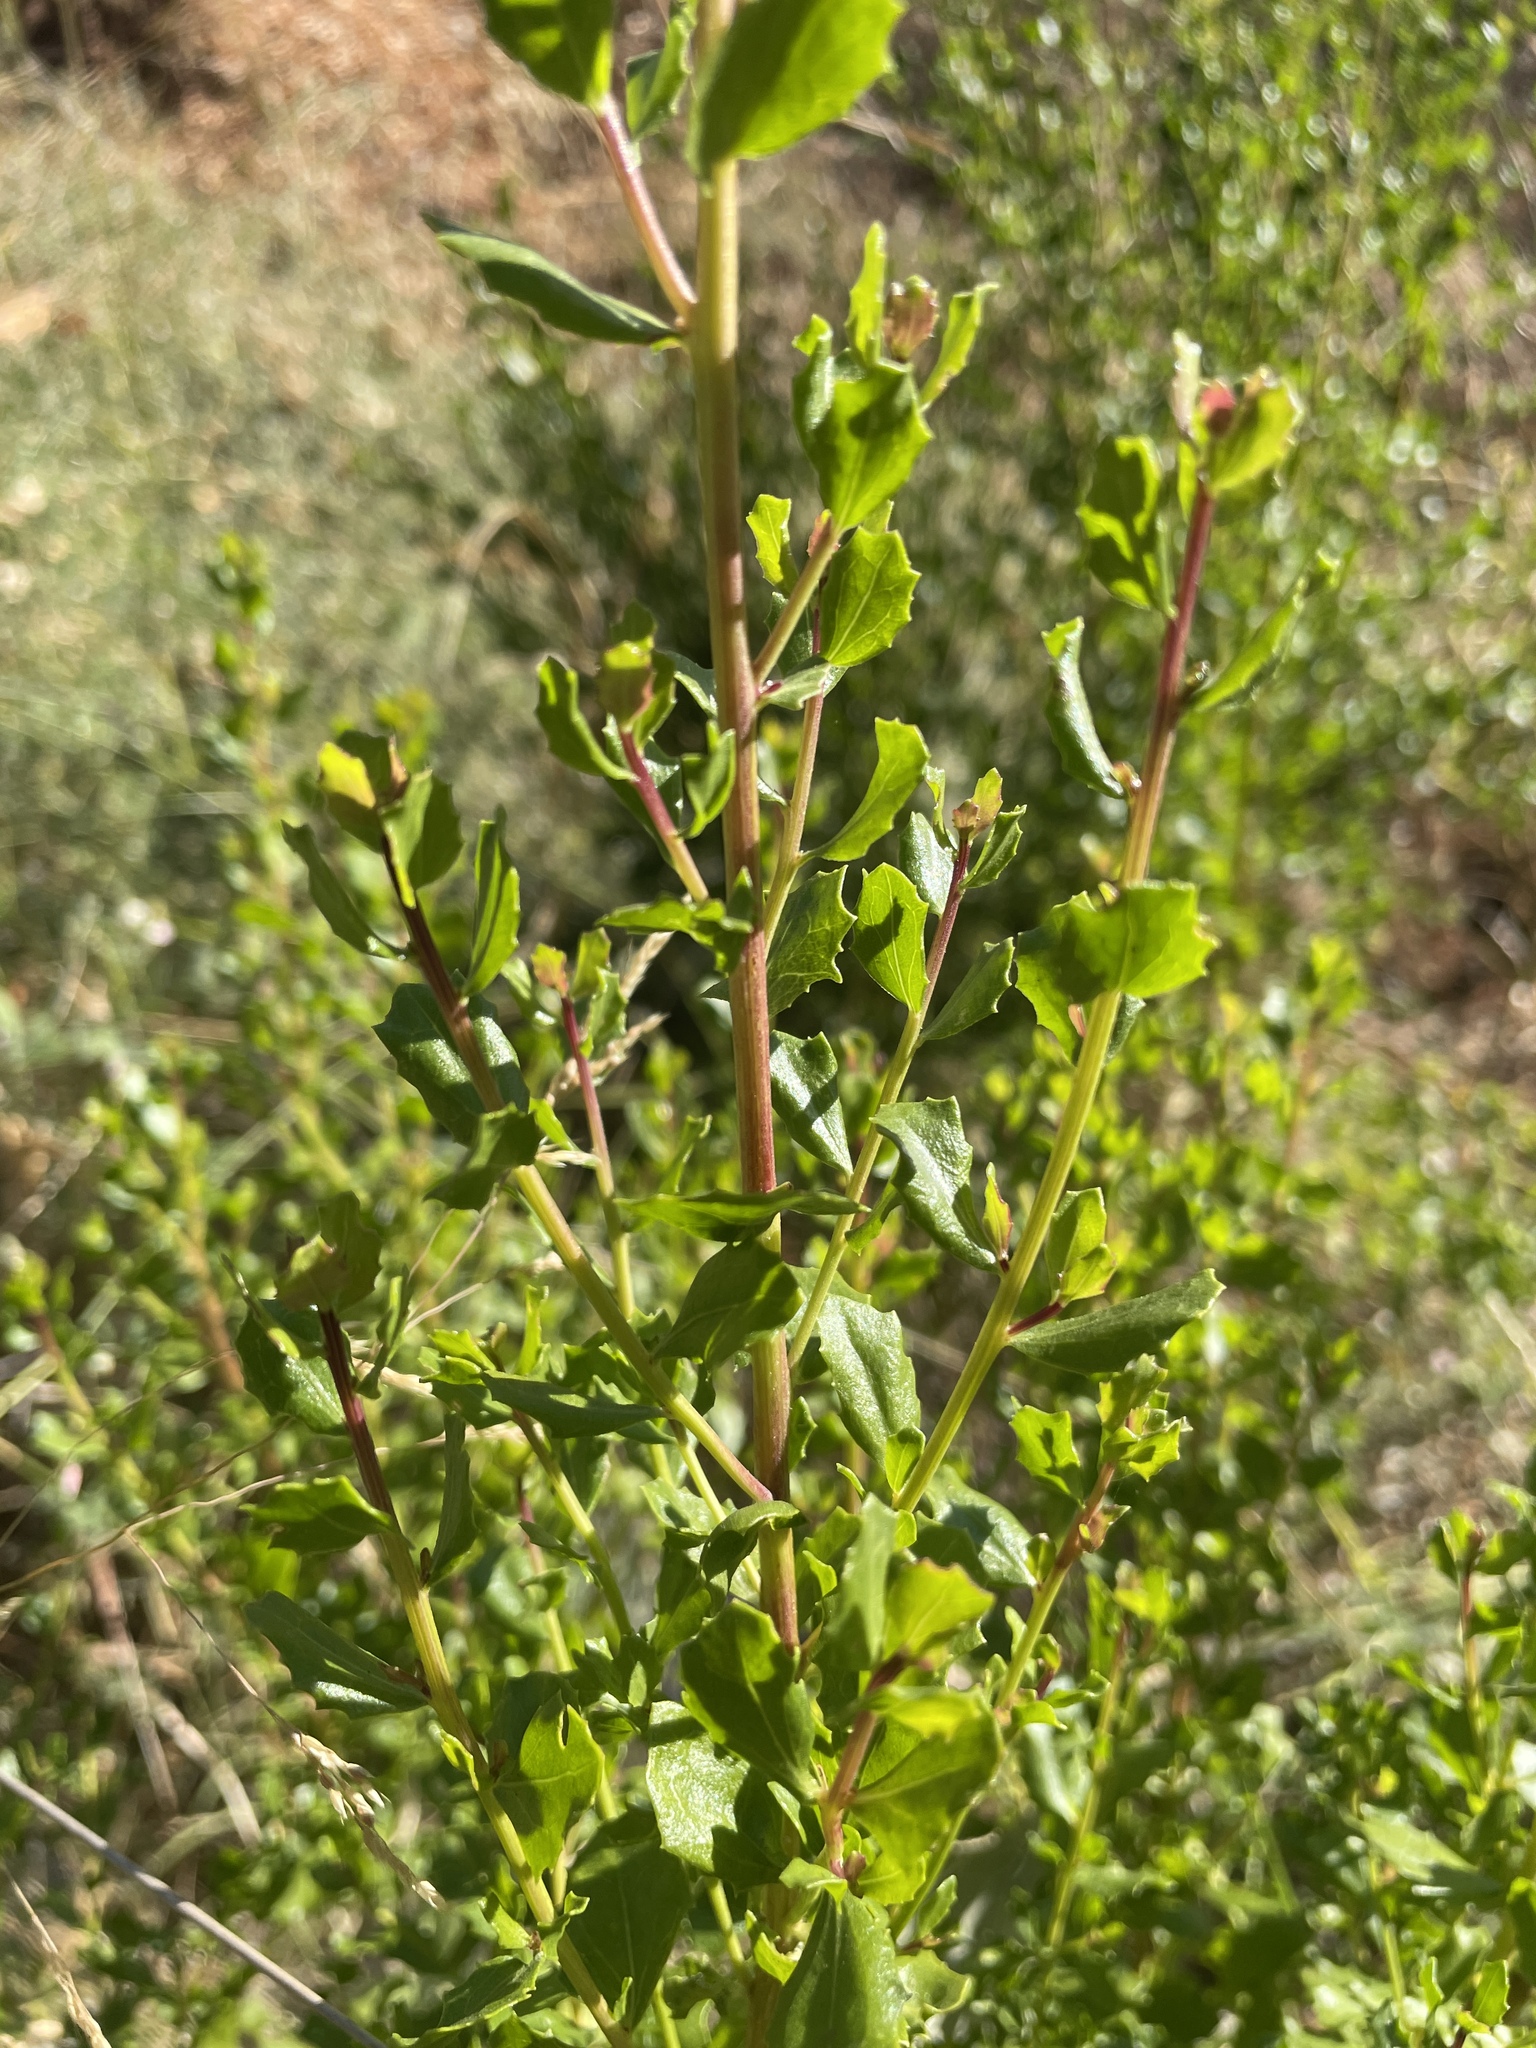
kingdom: Plantae
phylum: Tracheophyta
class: Magnoliopsida
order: Asterales
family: Asteraceae
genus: Baccharis
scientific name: Baccharis pilularis
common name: Coyotebrush
